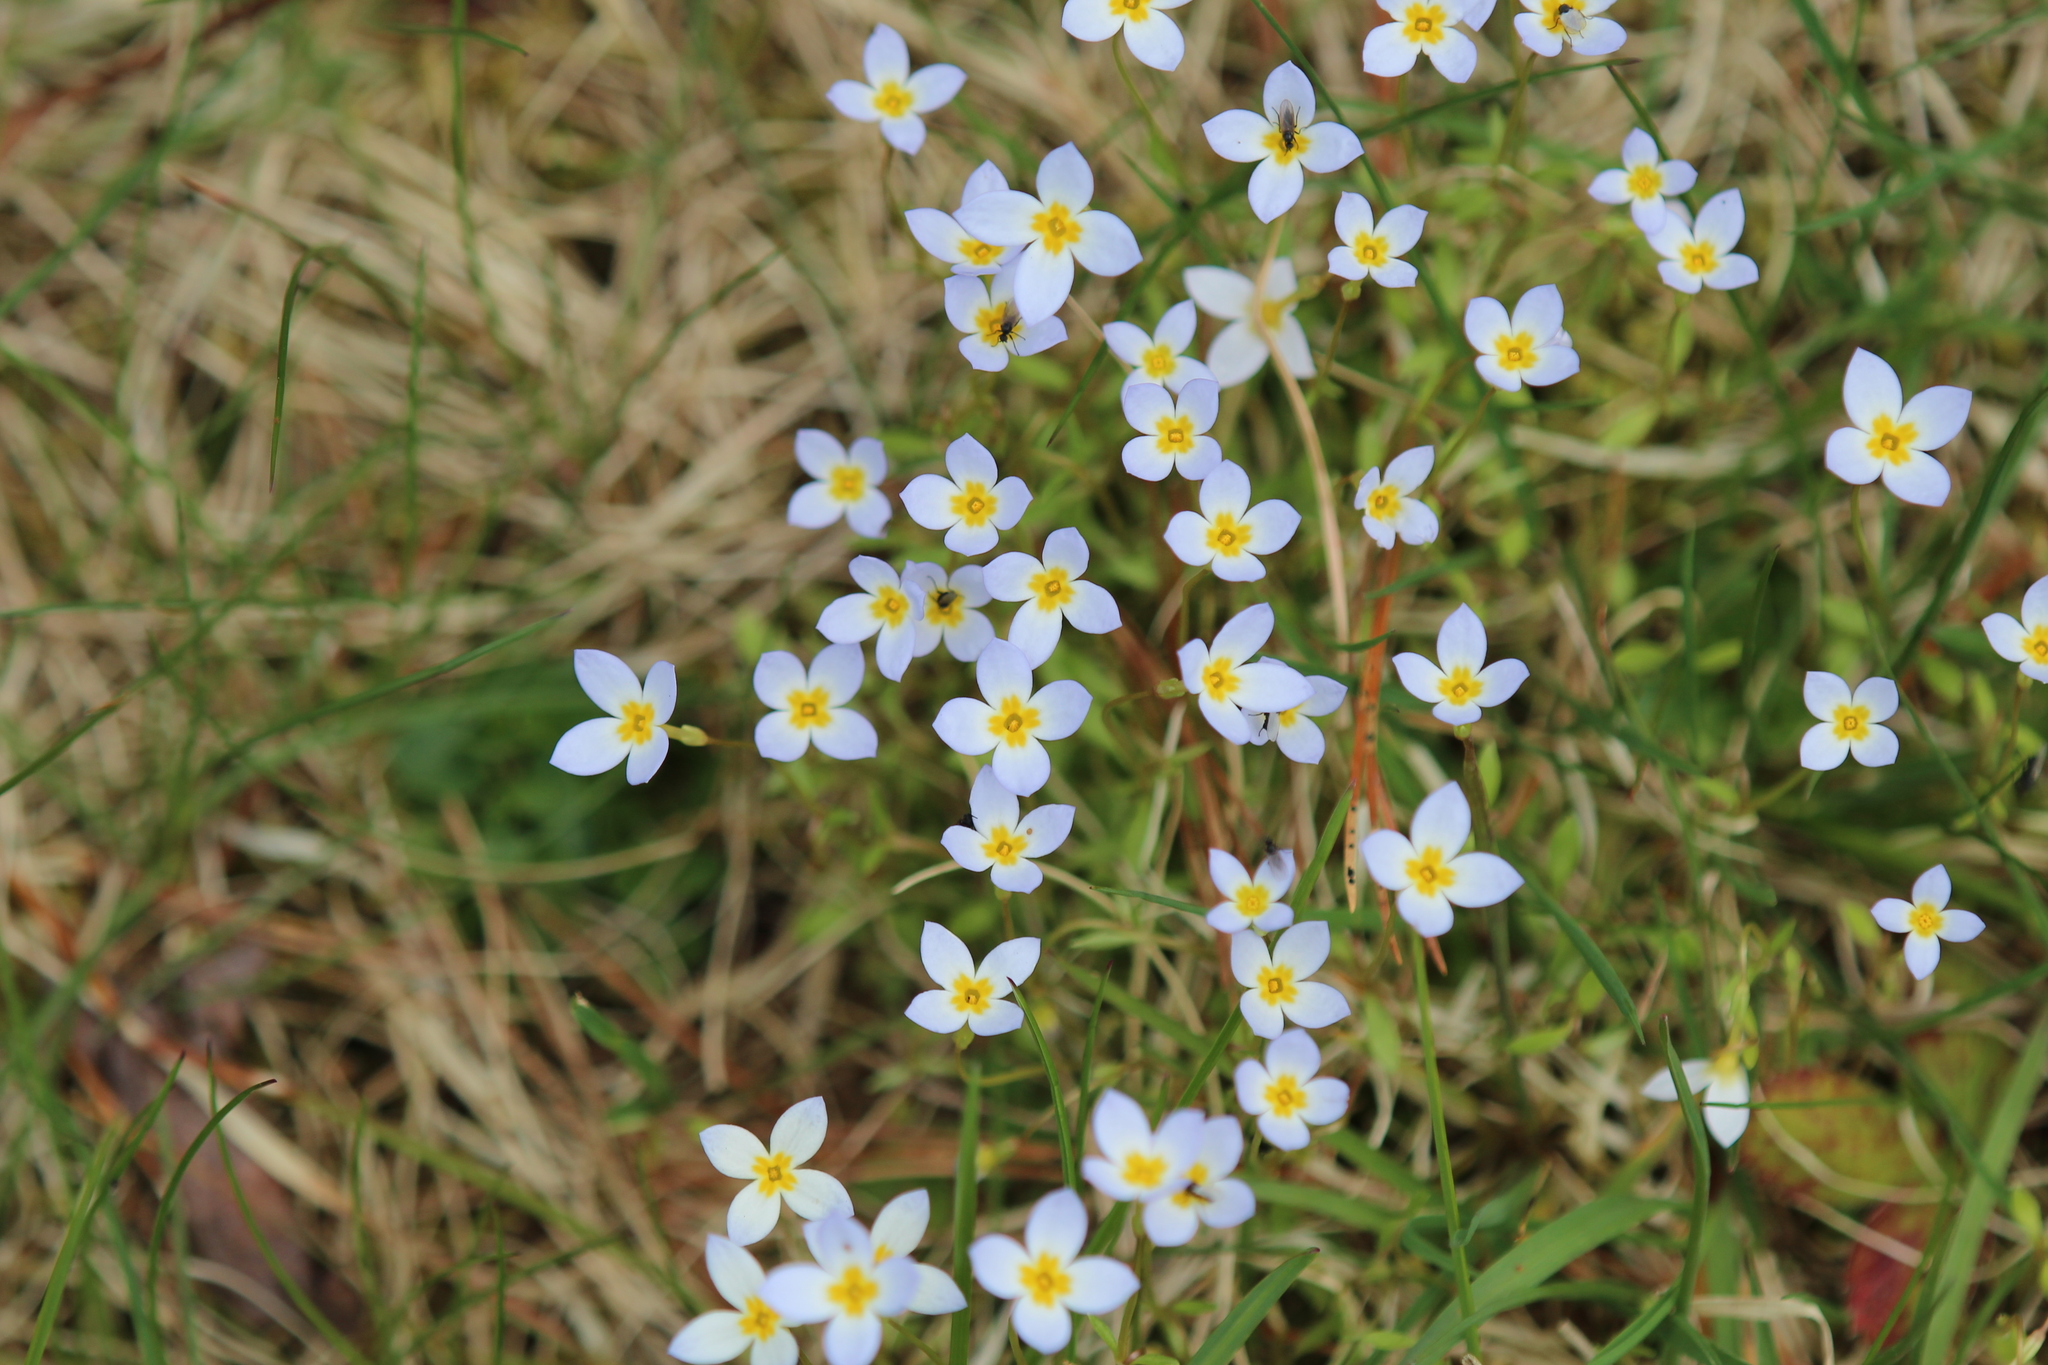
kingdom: Plantae
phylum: Tracheophyta
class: Magnoliopsida
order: Gentianales
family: Rubiaceae
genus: Houstonia
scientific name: Houstonia caerulea
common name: Bluets
